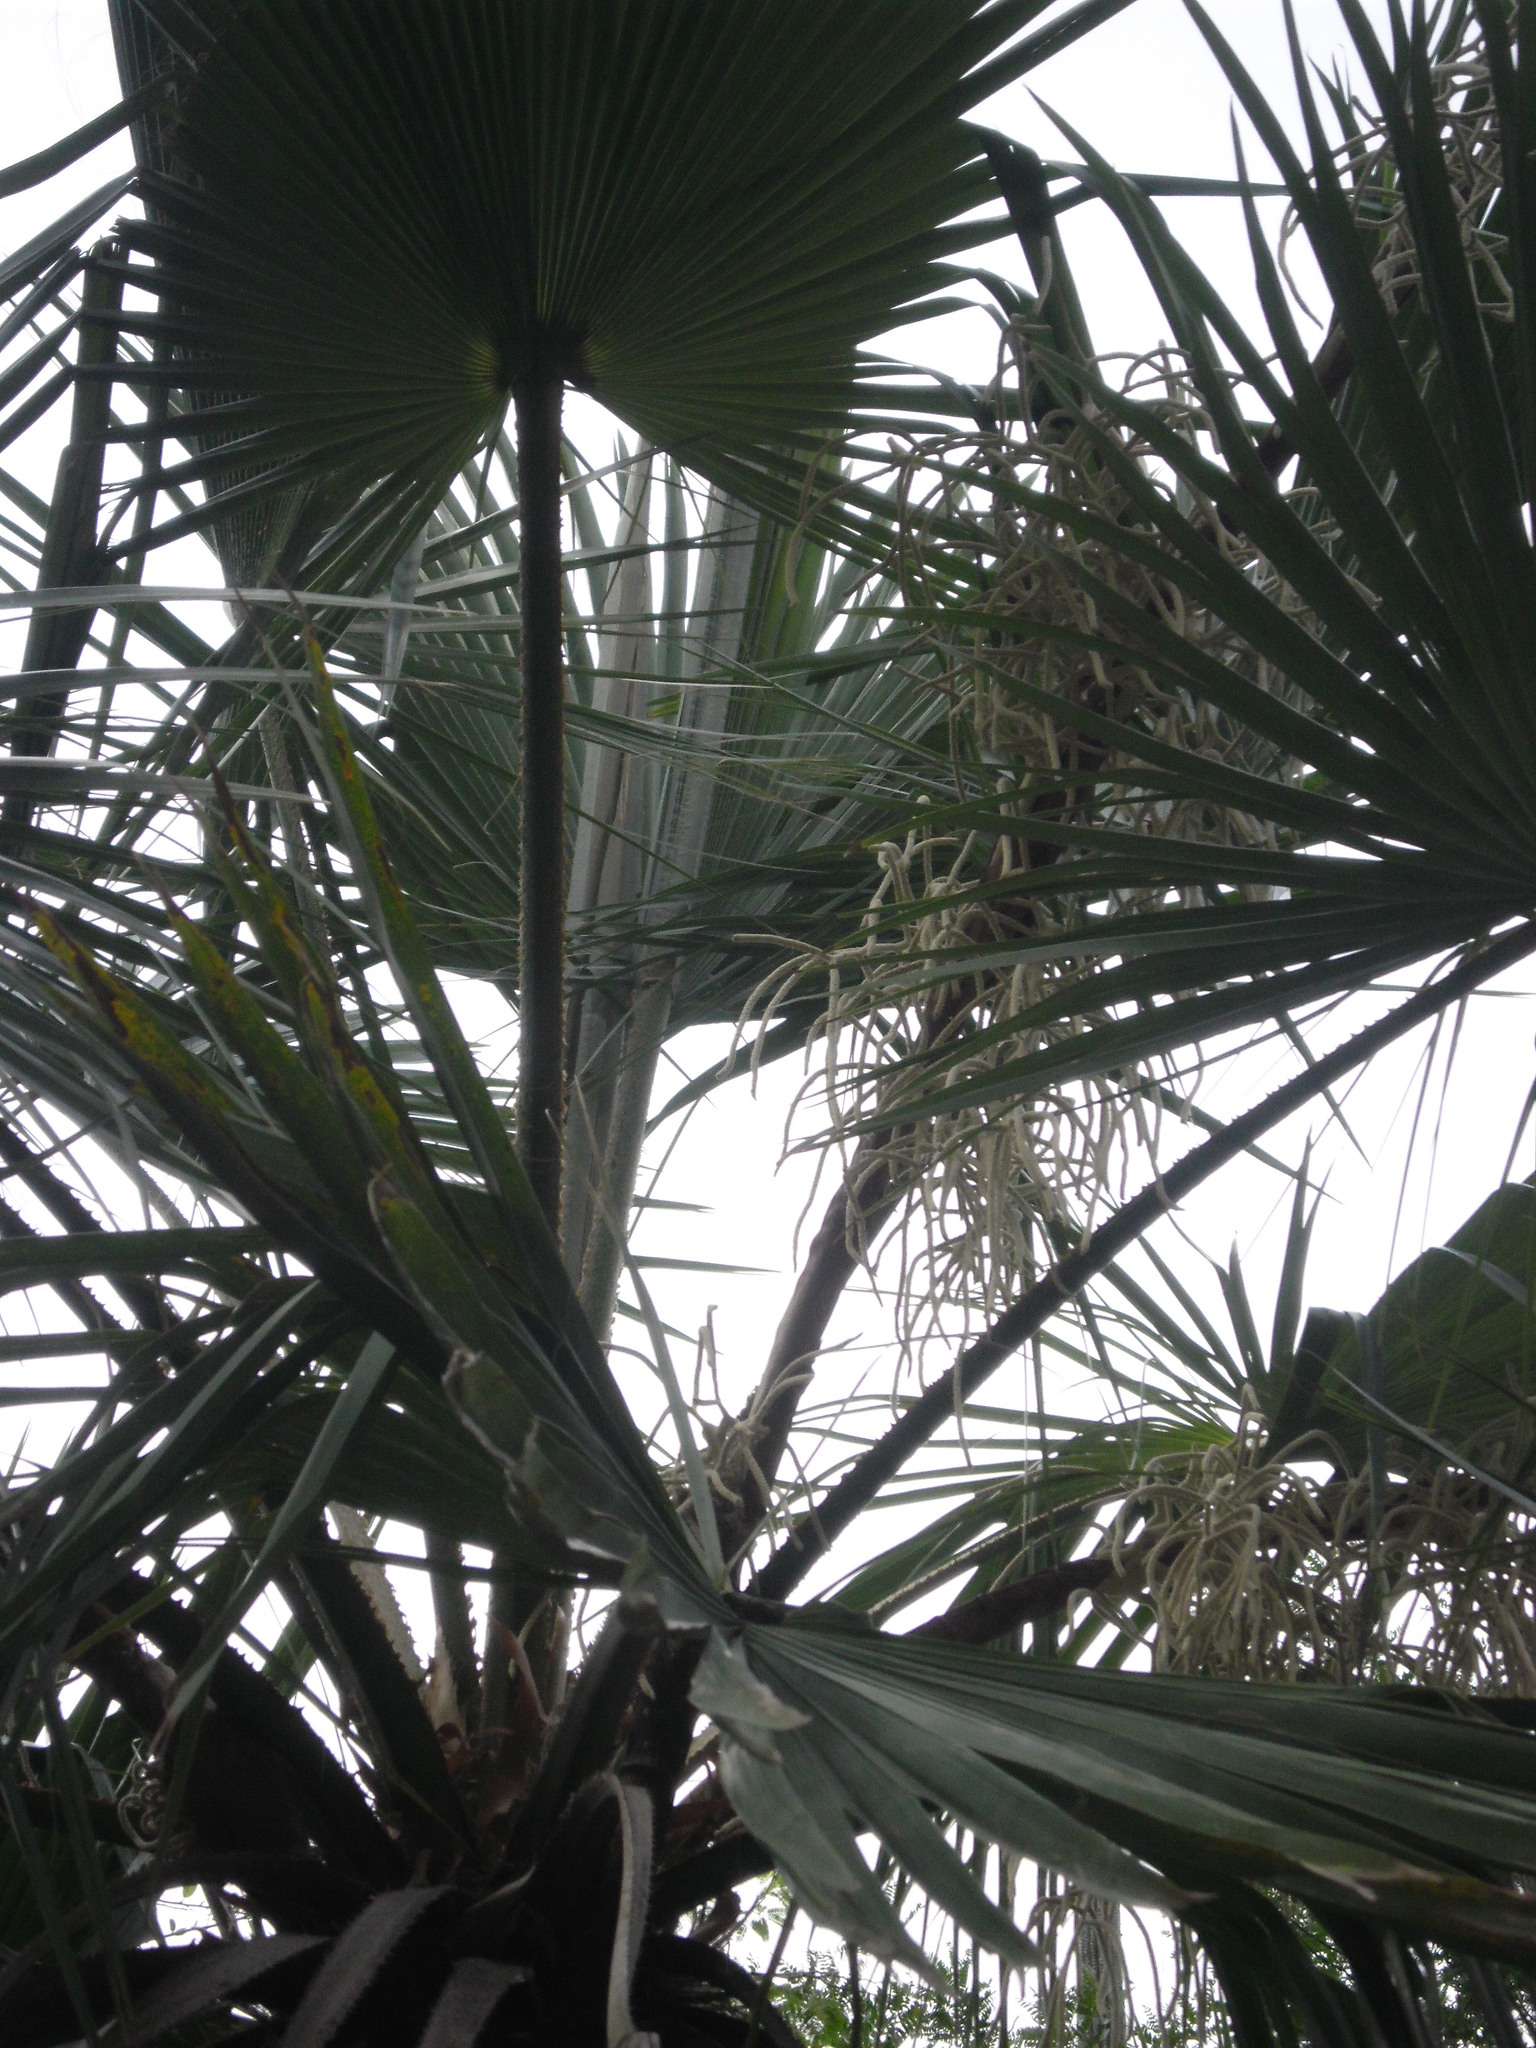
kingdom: Plantae
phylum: Tracheophyta
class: Liliopsida
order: Arecales
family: Arecaceae
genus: Brahea
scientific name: Brahea dulcis
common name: Apak palm
